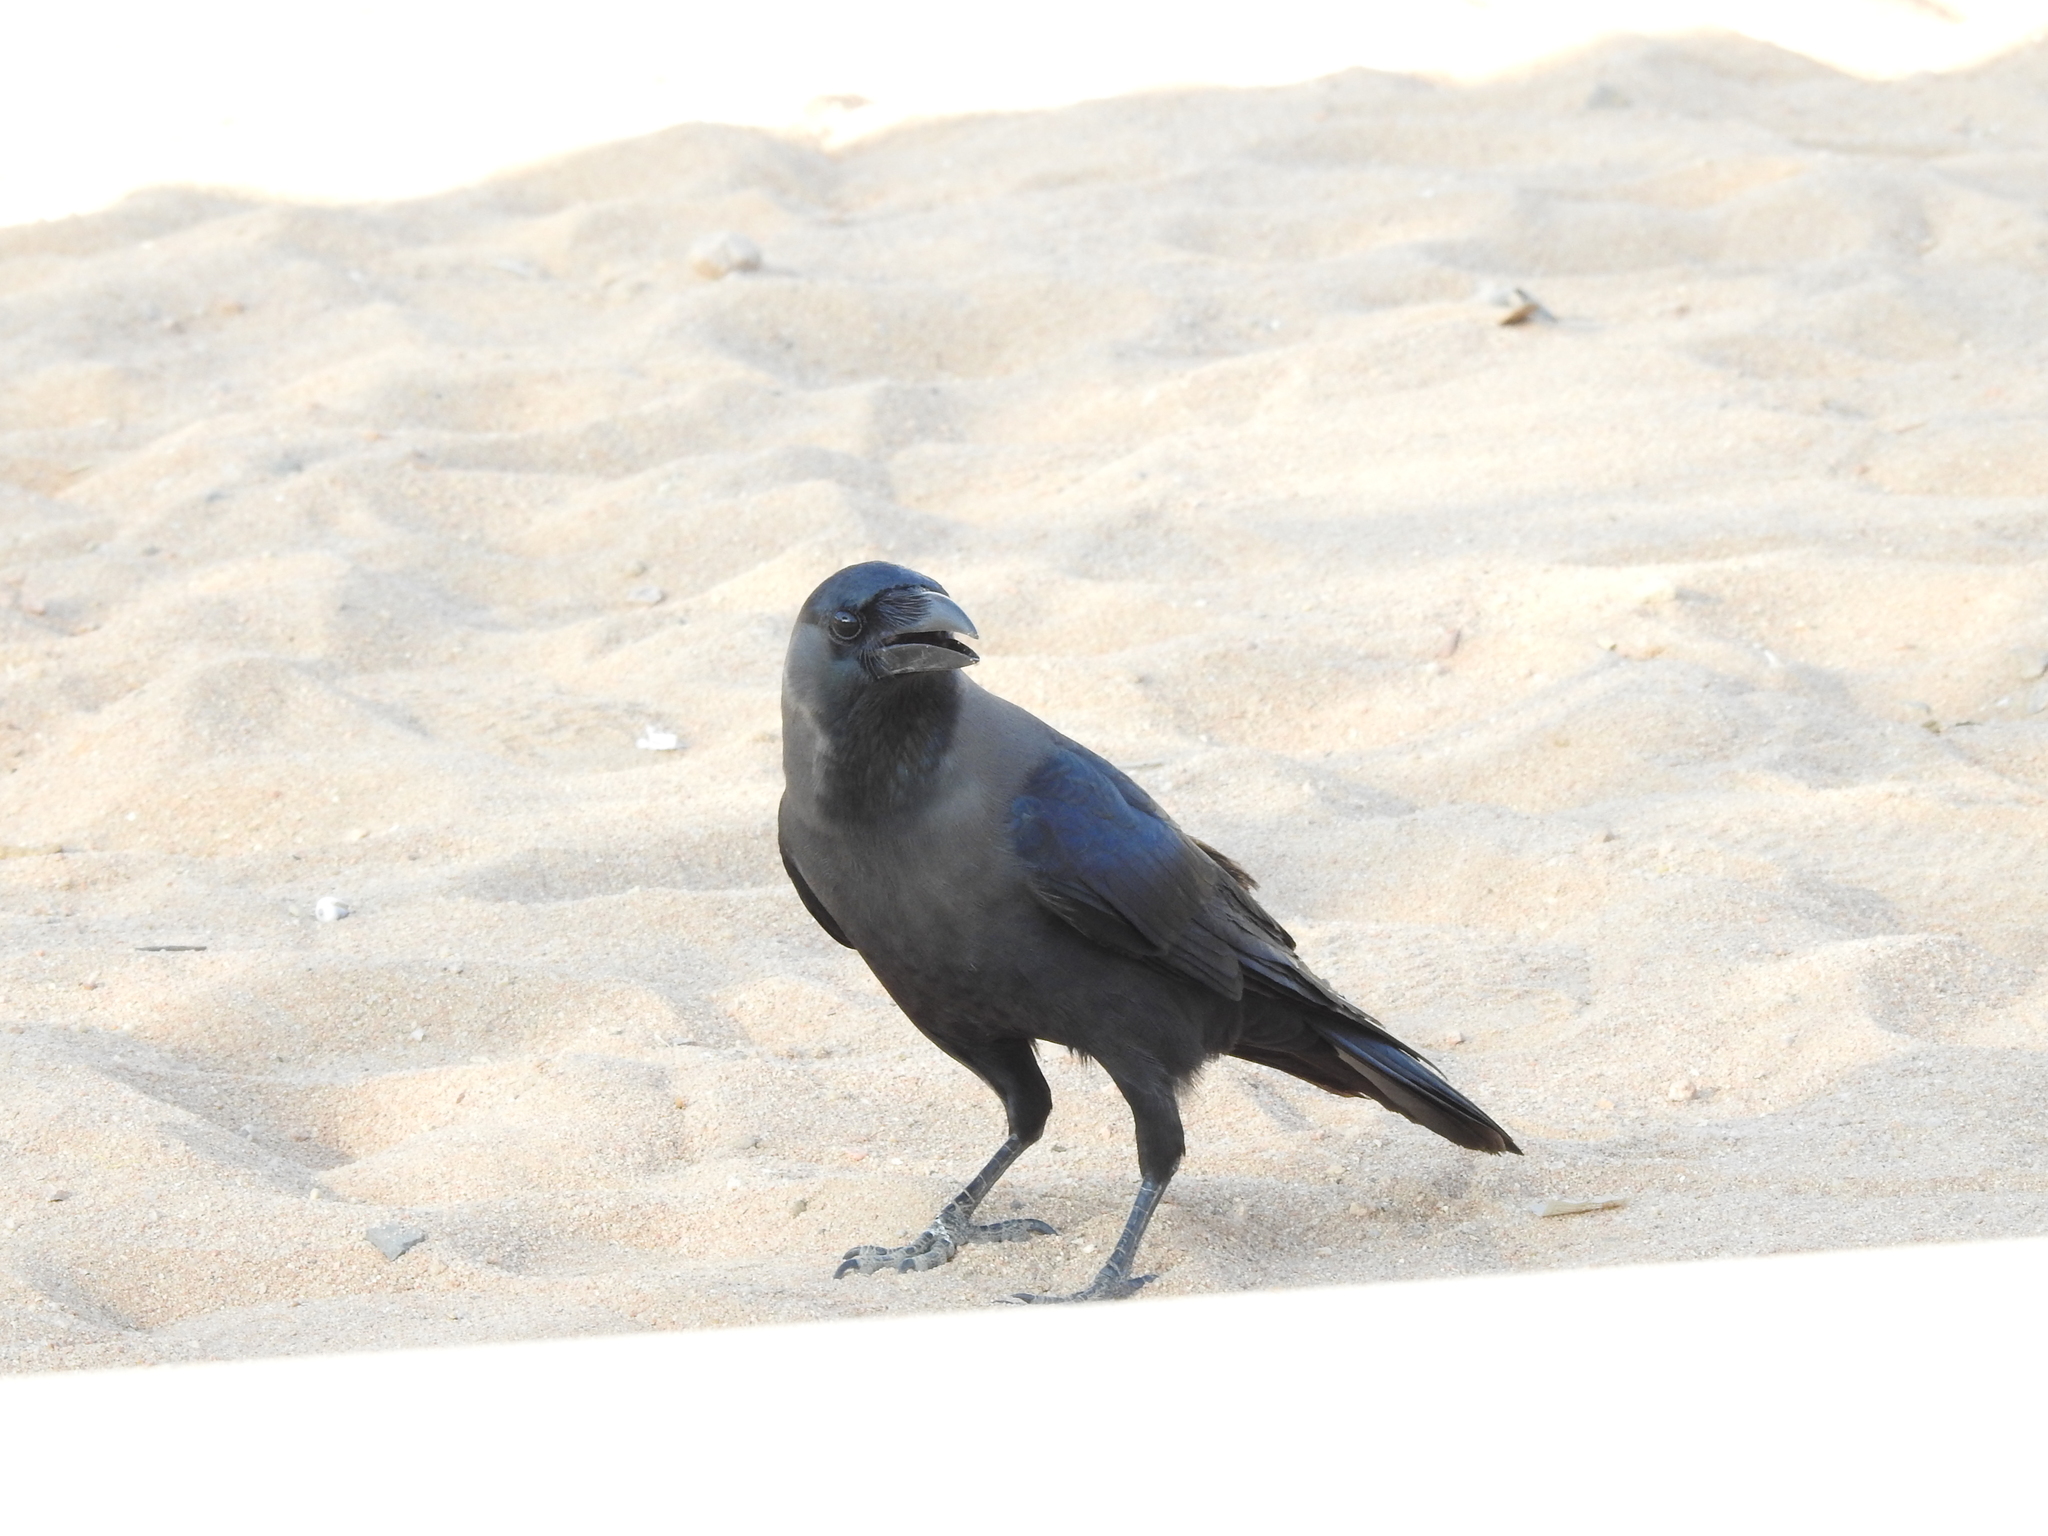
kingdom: Animalia
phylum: Chordata
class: Aves
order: Passeriformes
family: Corvidae
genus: Corvus
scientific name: Corvus splendens
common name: House crow
